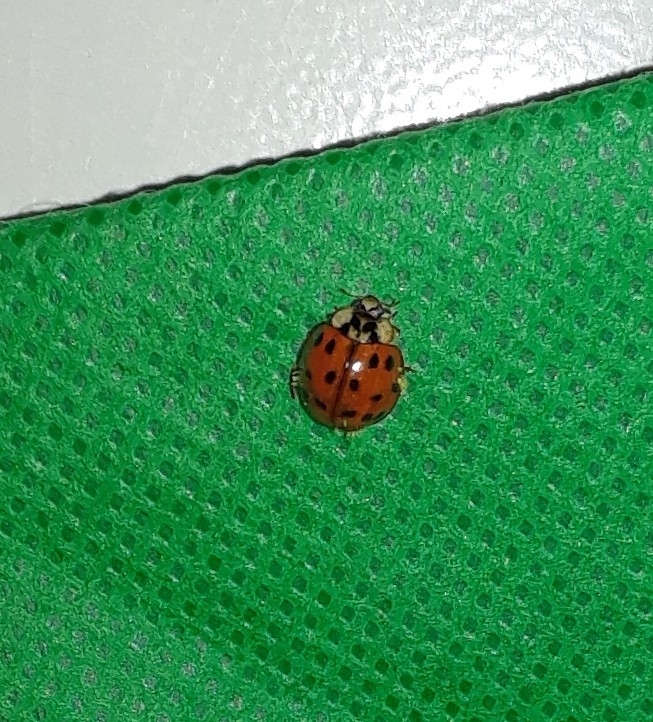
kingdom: Fungi
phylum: Ascomycota
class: Laboulbeniomycetes
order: Laboulbeniales
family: Laboulbeniaceae
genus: Hesperomyces
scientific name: Hesperomyces harmoniae
